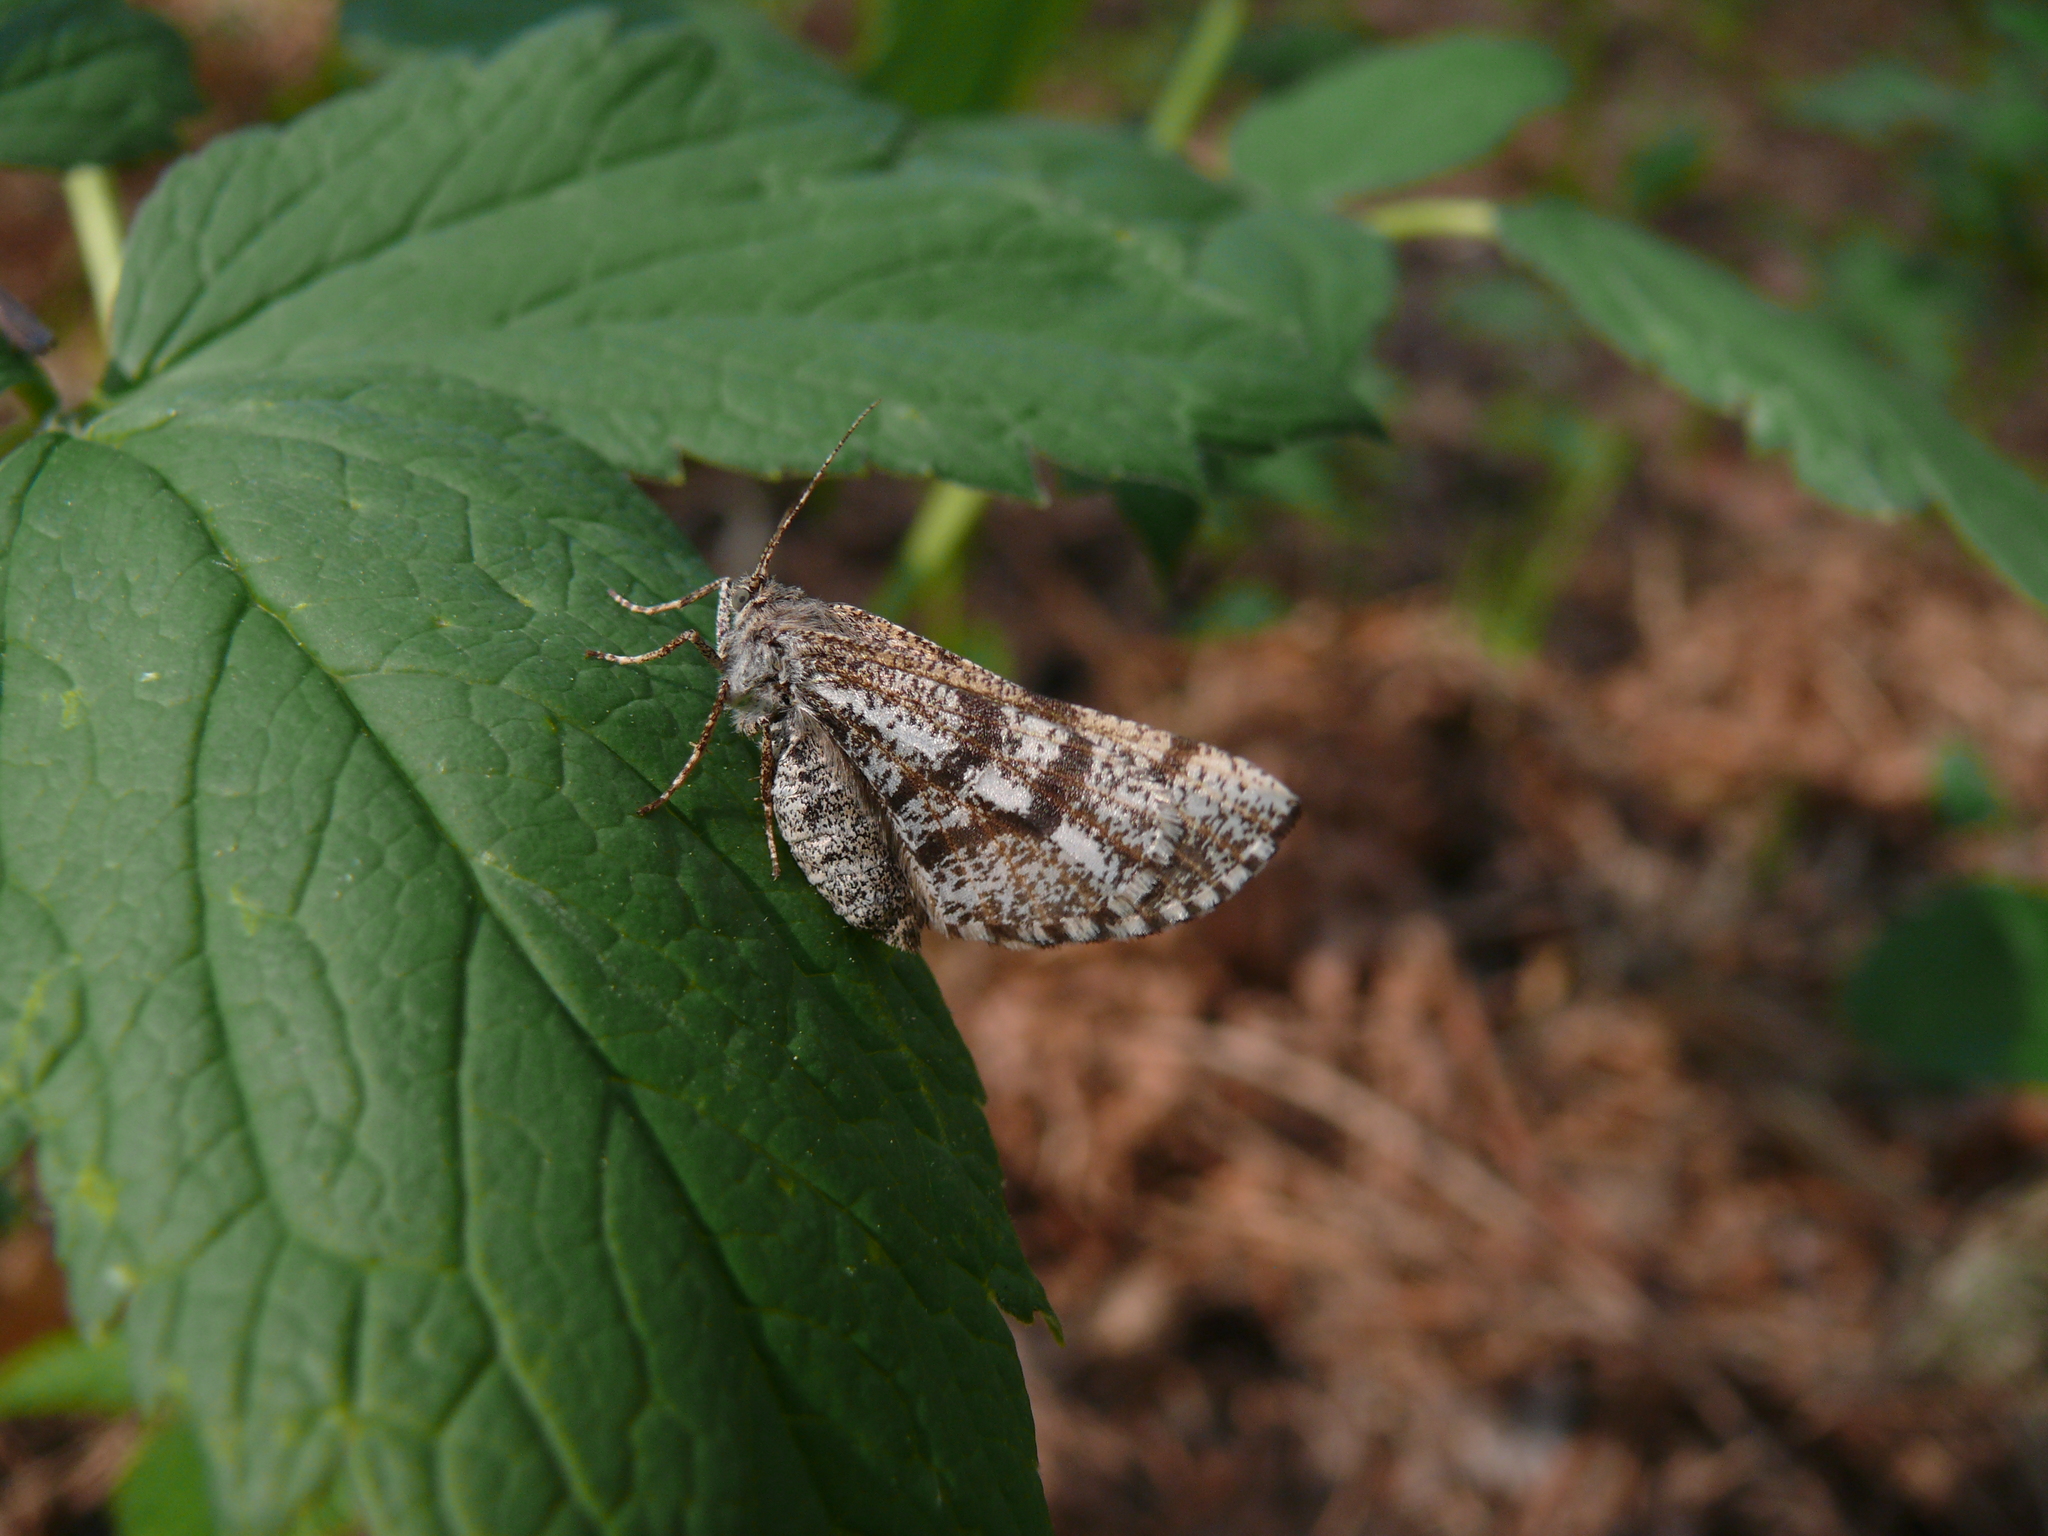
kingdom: Animalia
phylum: Arthropoda
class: Insecta
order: Lepidoptera
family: Geometridae
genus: Bupalus
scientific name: Bupalus piniaria
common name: Bordered white
